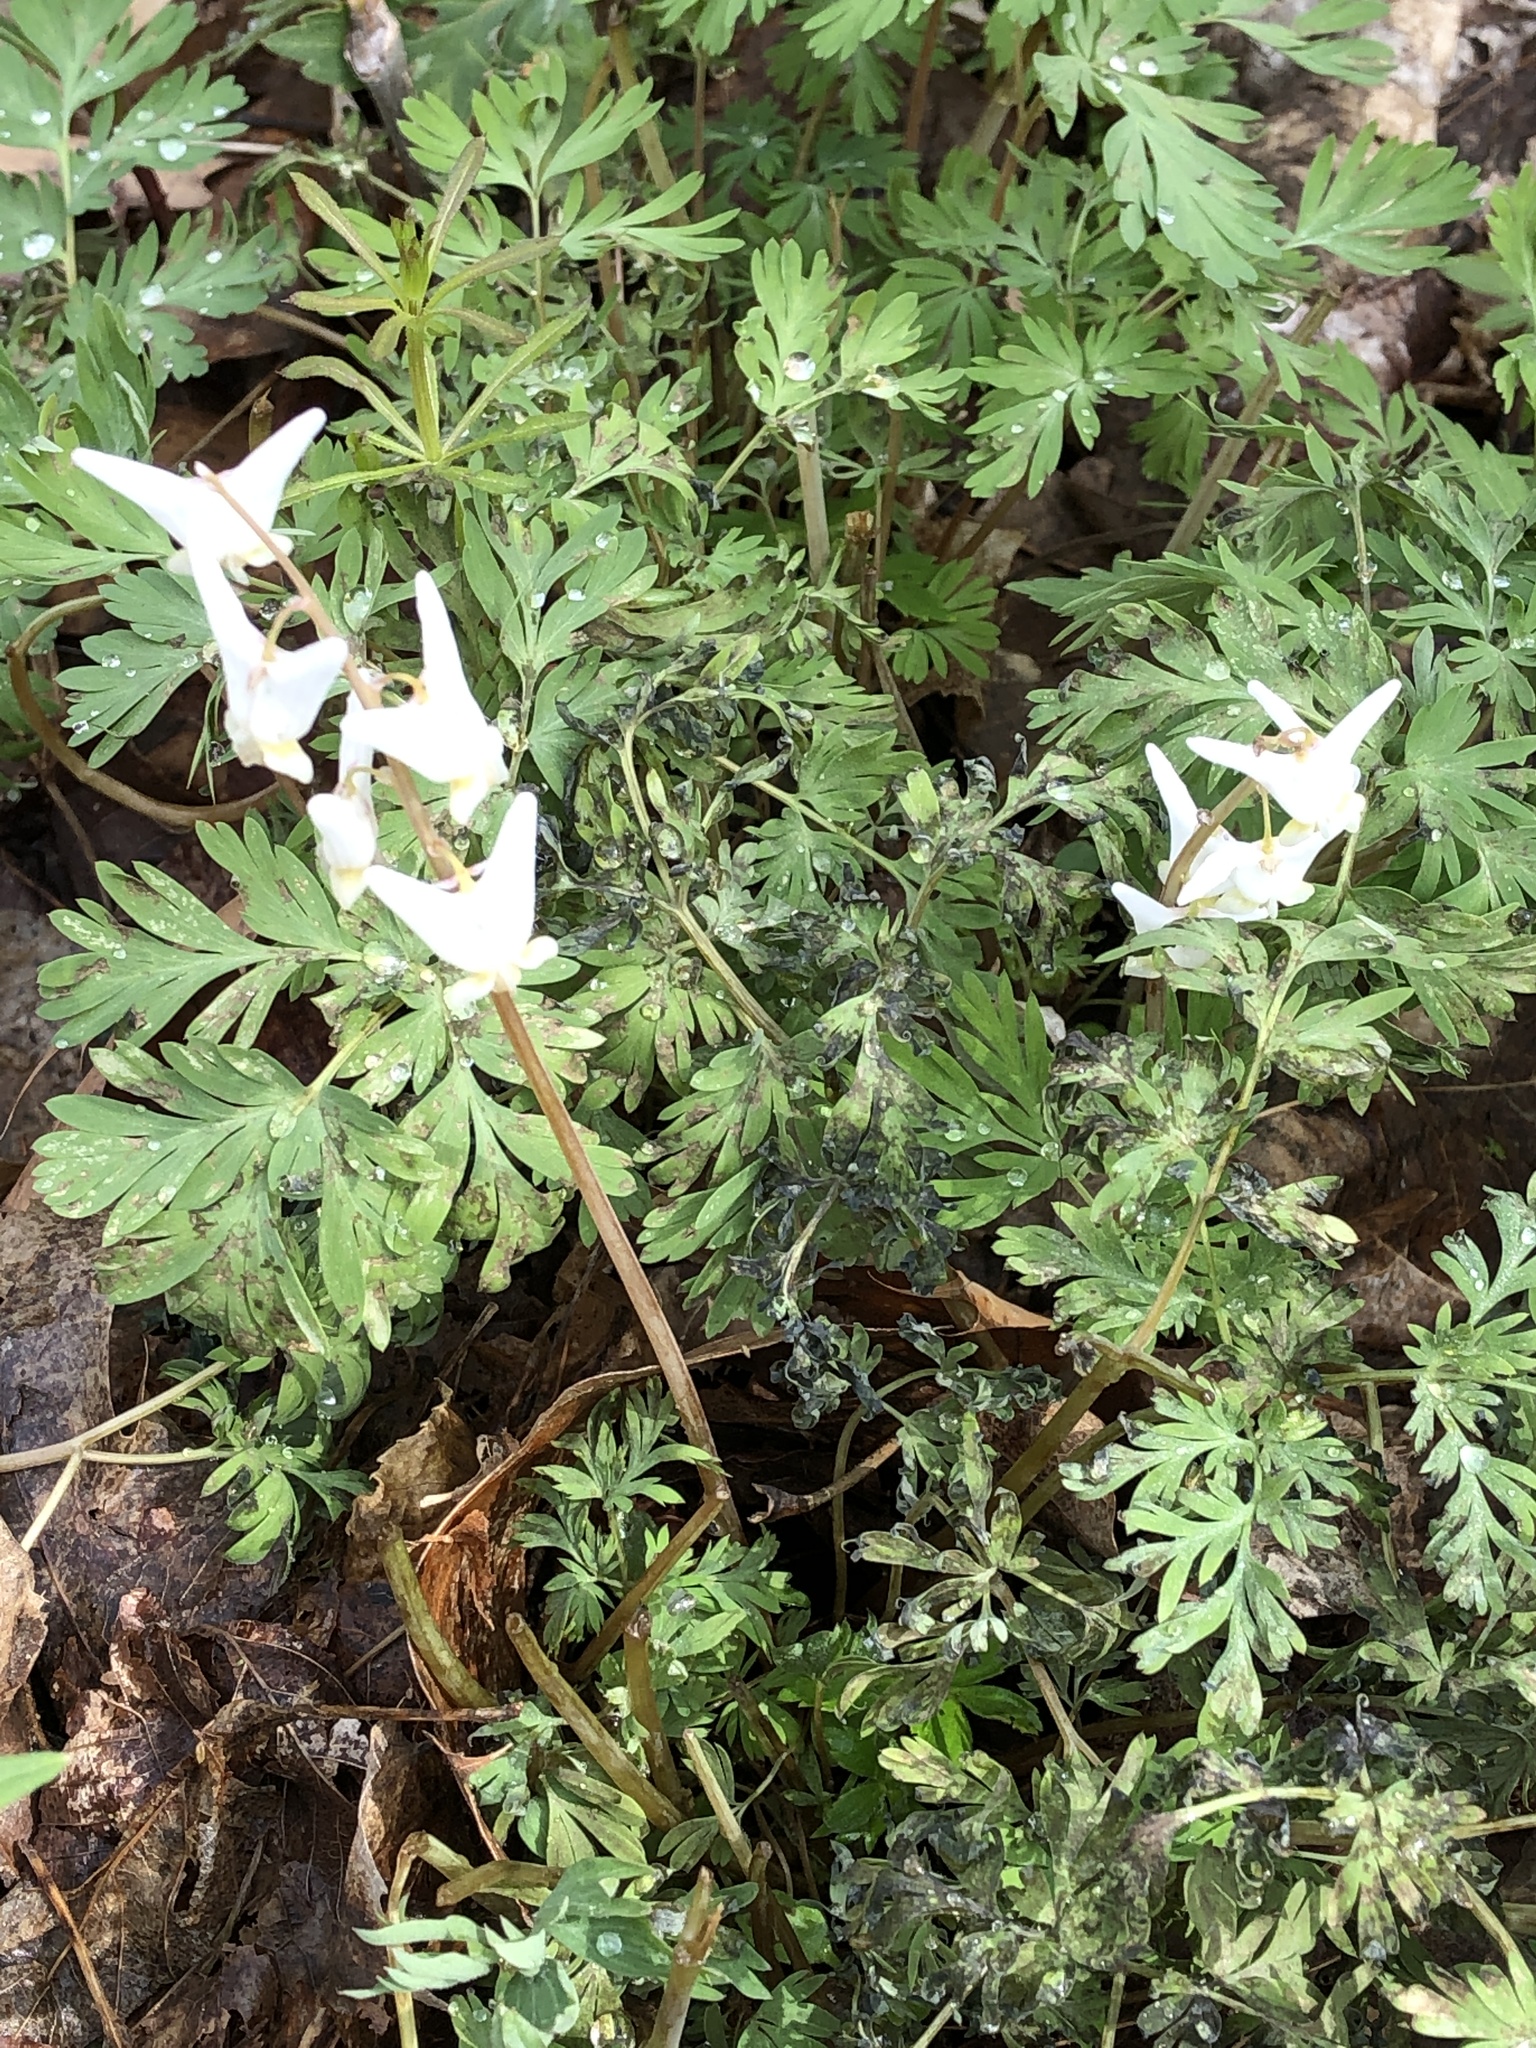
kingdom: Plantae
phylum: Tracheophyta
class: Magnoliopsida
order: Ranunculales
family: Papaveraceae
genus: Dicentra
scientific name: Dicentra cucullaria
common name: Dutchman's breeches
